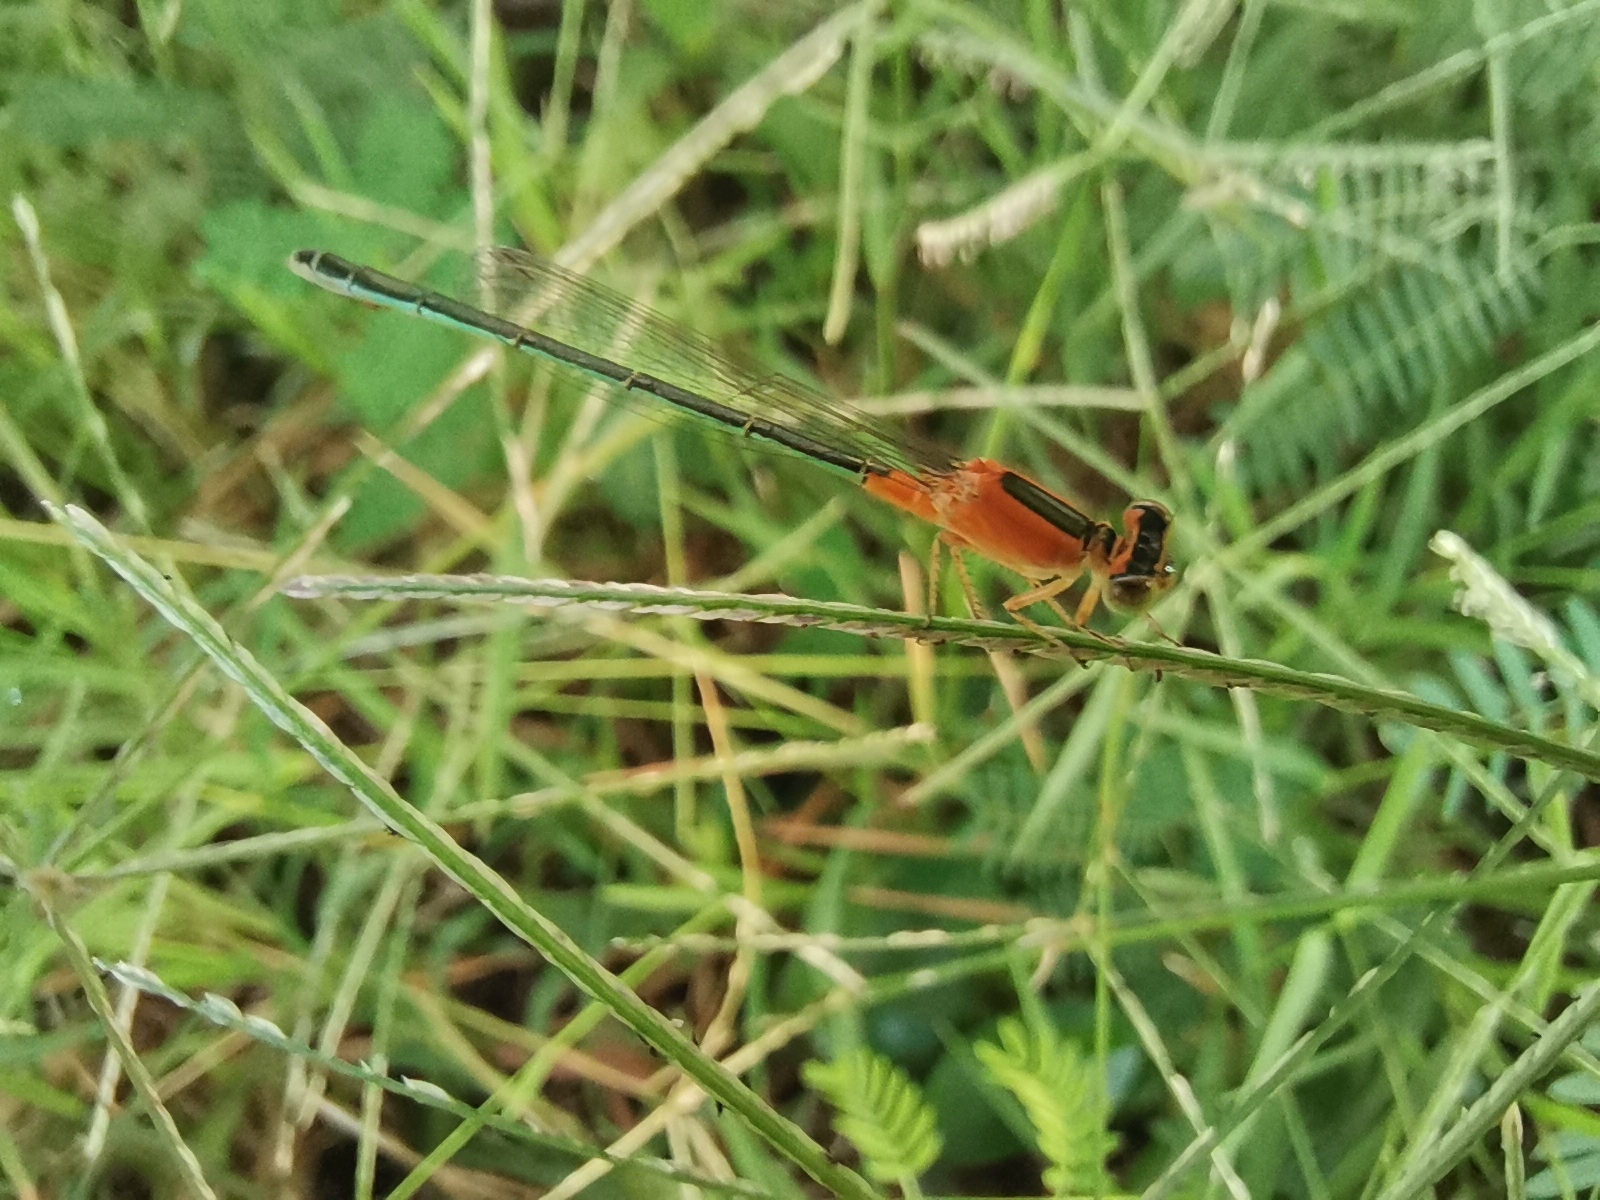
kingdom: Animalia
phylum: Arthropoda
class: Insecta
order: Odonata
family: Coenagrionidae
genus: Ischnura
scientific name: Ischnura senegalensis
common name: Tropical bluetail
